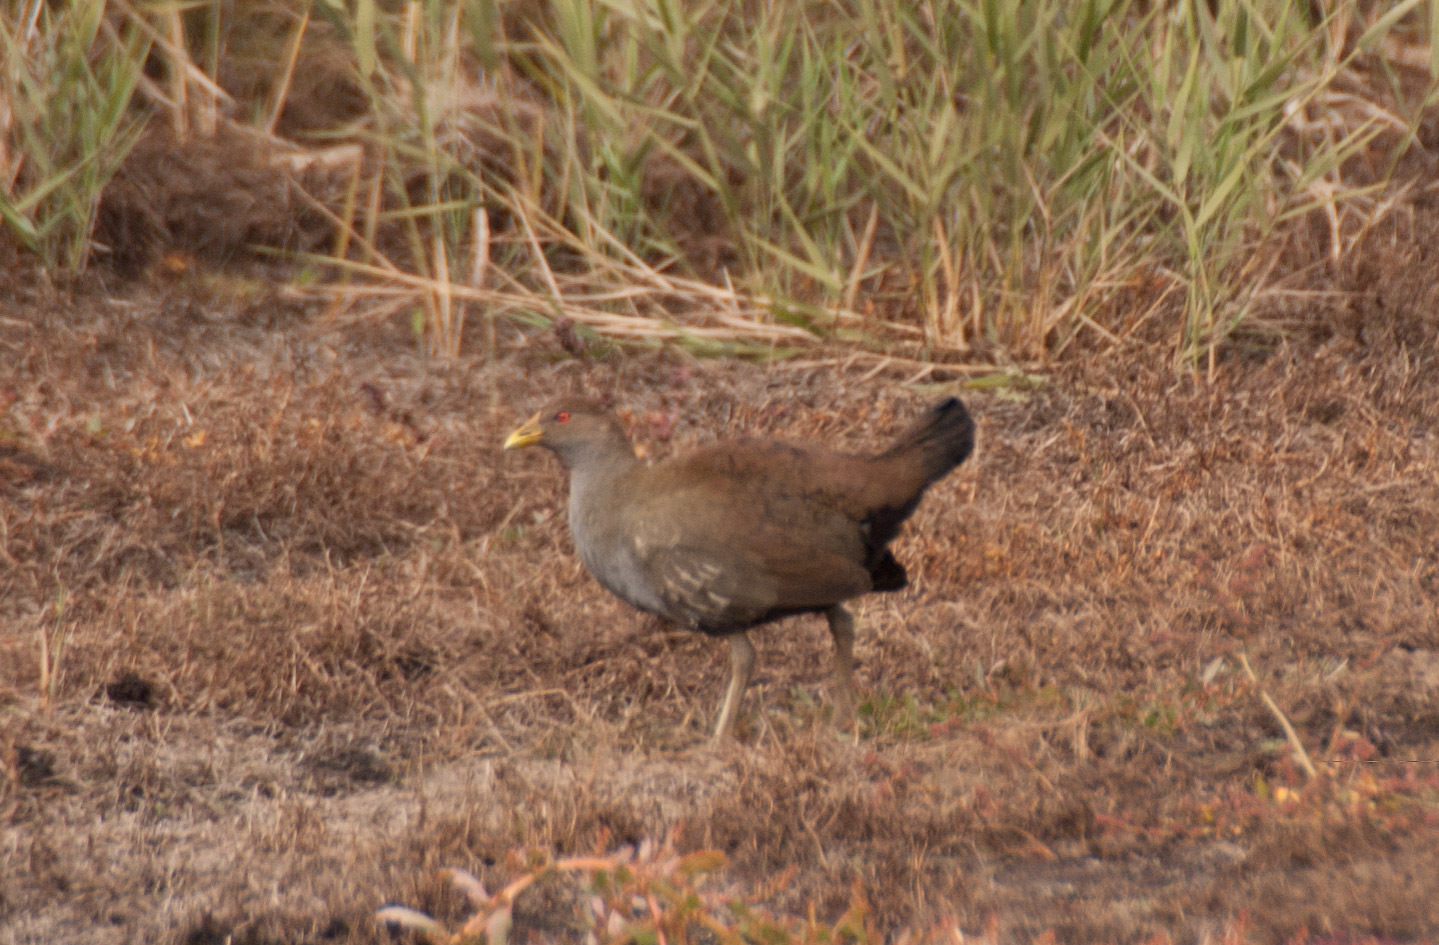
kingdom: Animalia
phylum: Chordata
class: Aves
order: Gruiformes
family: Rallidae
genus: Gallinula
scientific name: Gallinula mortierii
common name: Tasmanian nativehen
